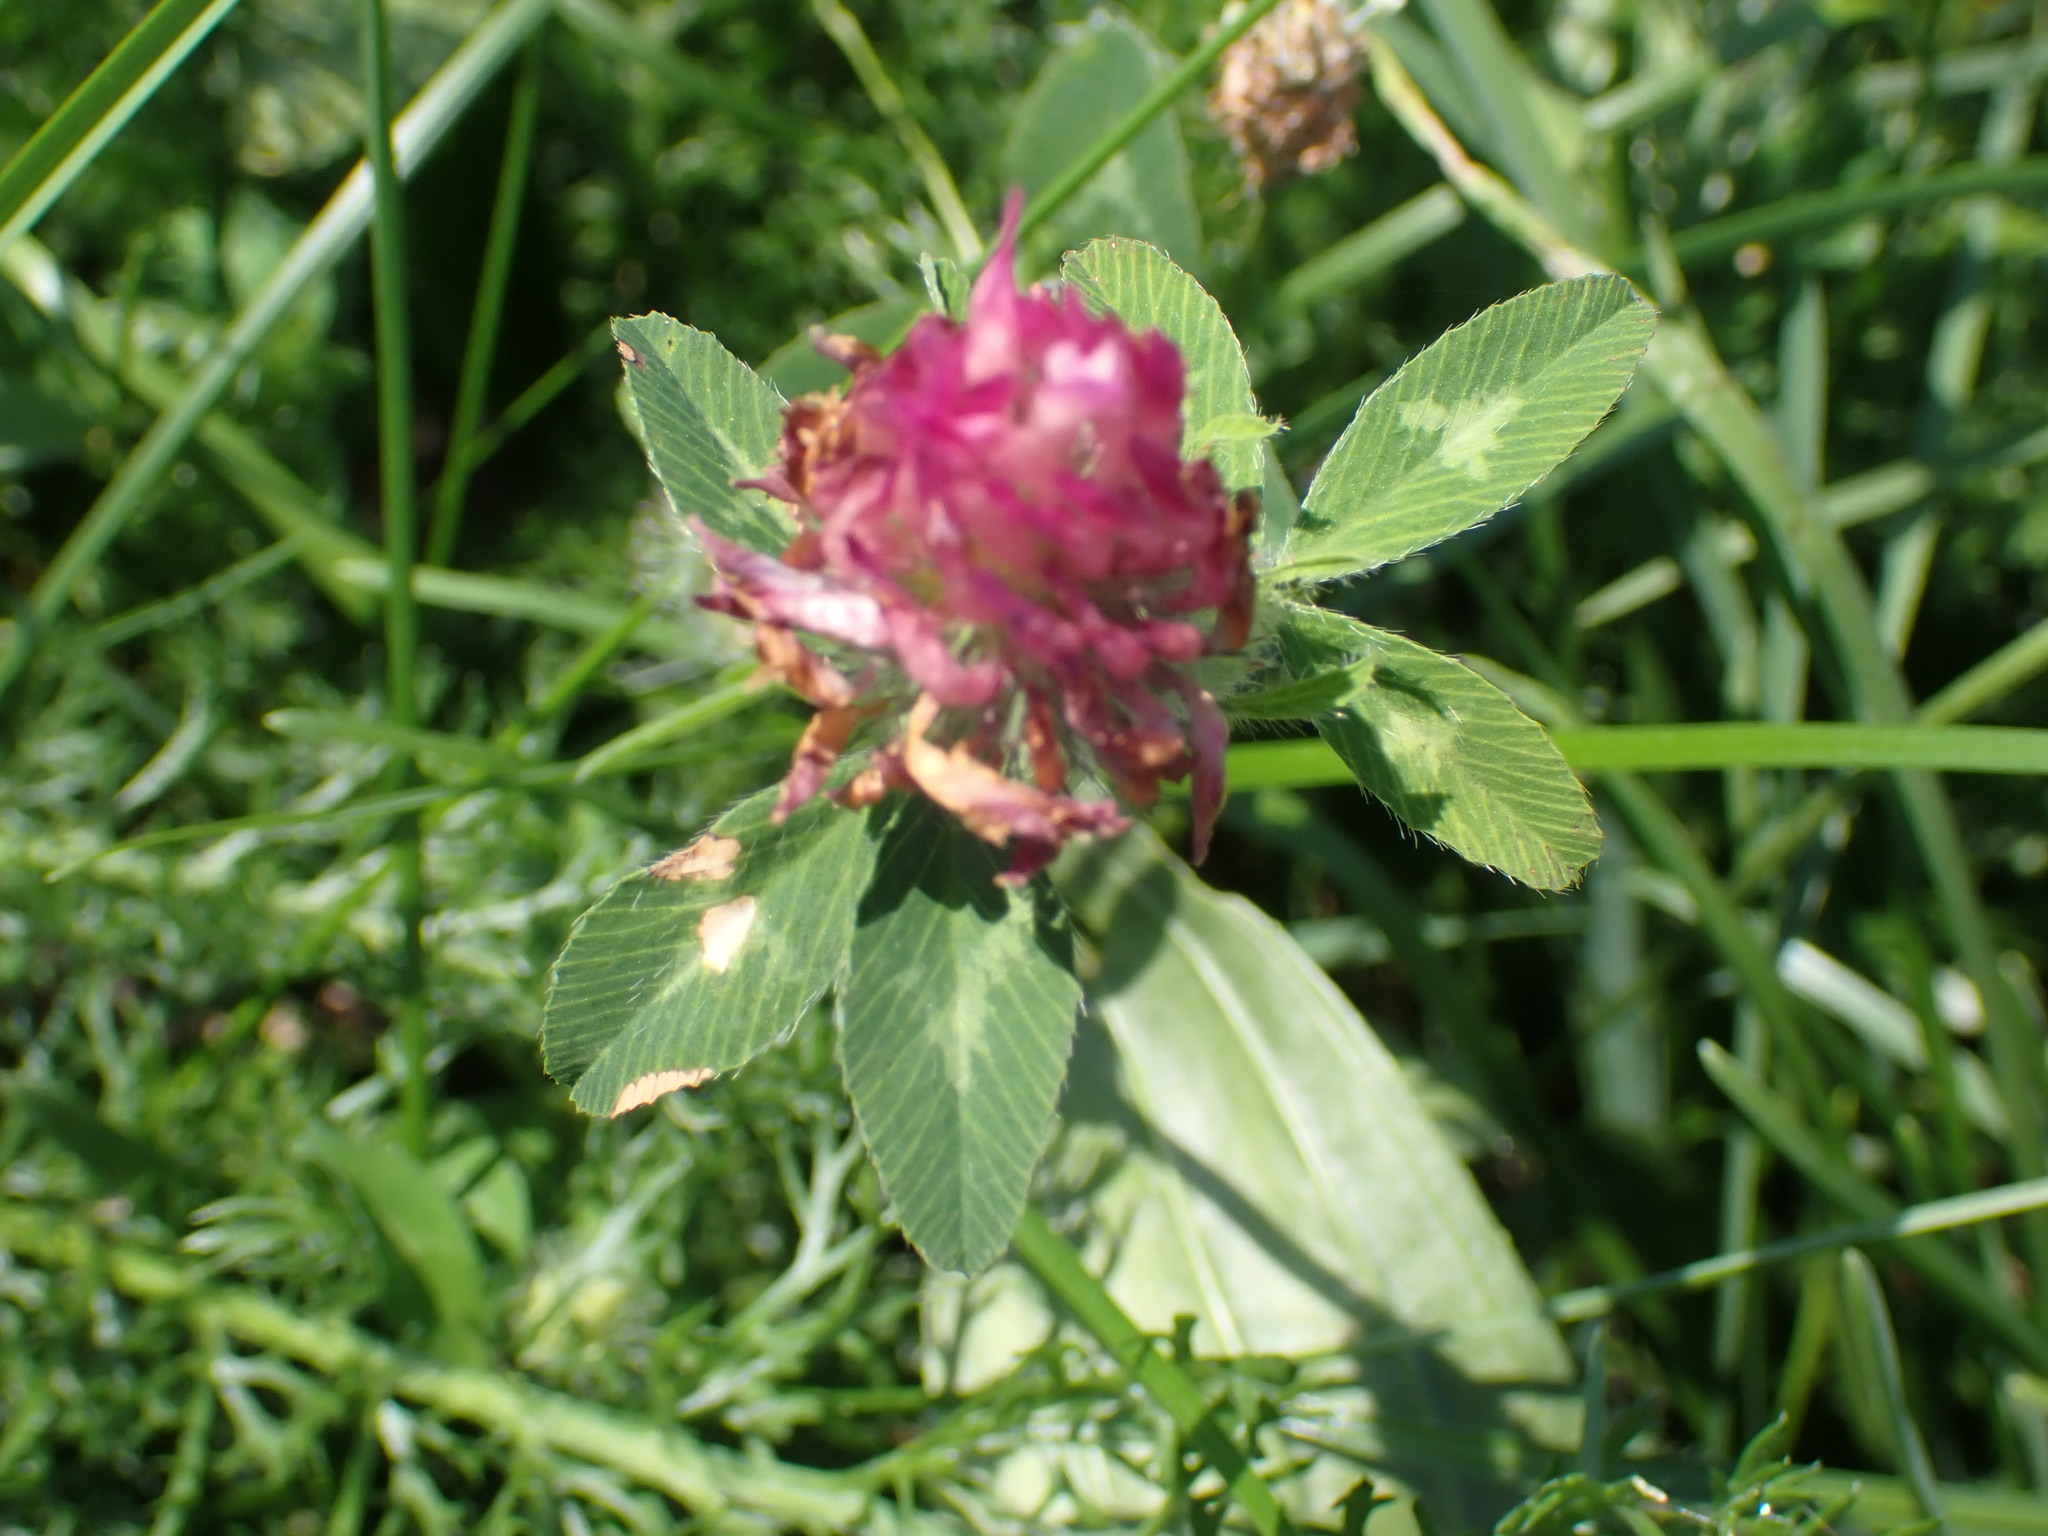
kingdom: Plantae
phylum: Tracheophyta
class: Magnoliopsida
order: Fabales
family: Fabaceae
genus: Trifolium
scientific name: Trifolium pratense
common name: Red clover
